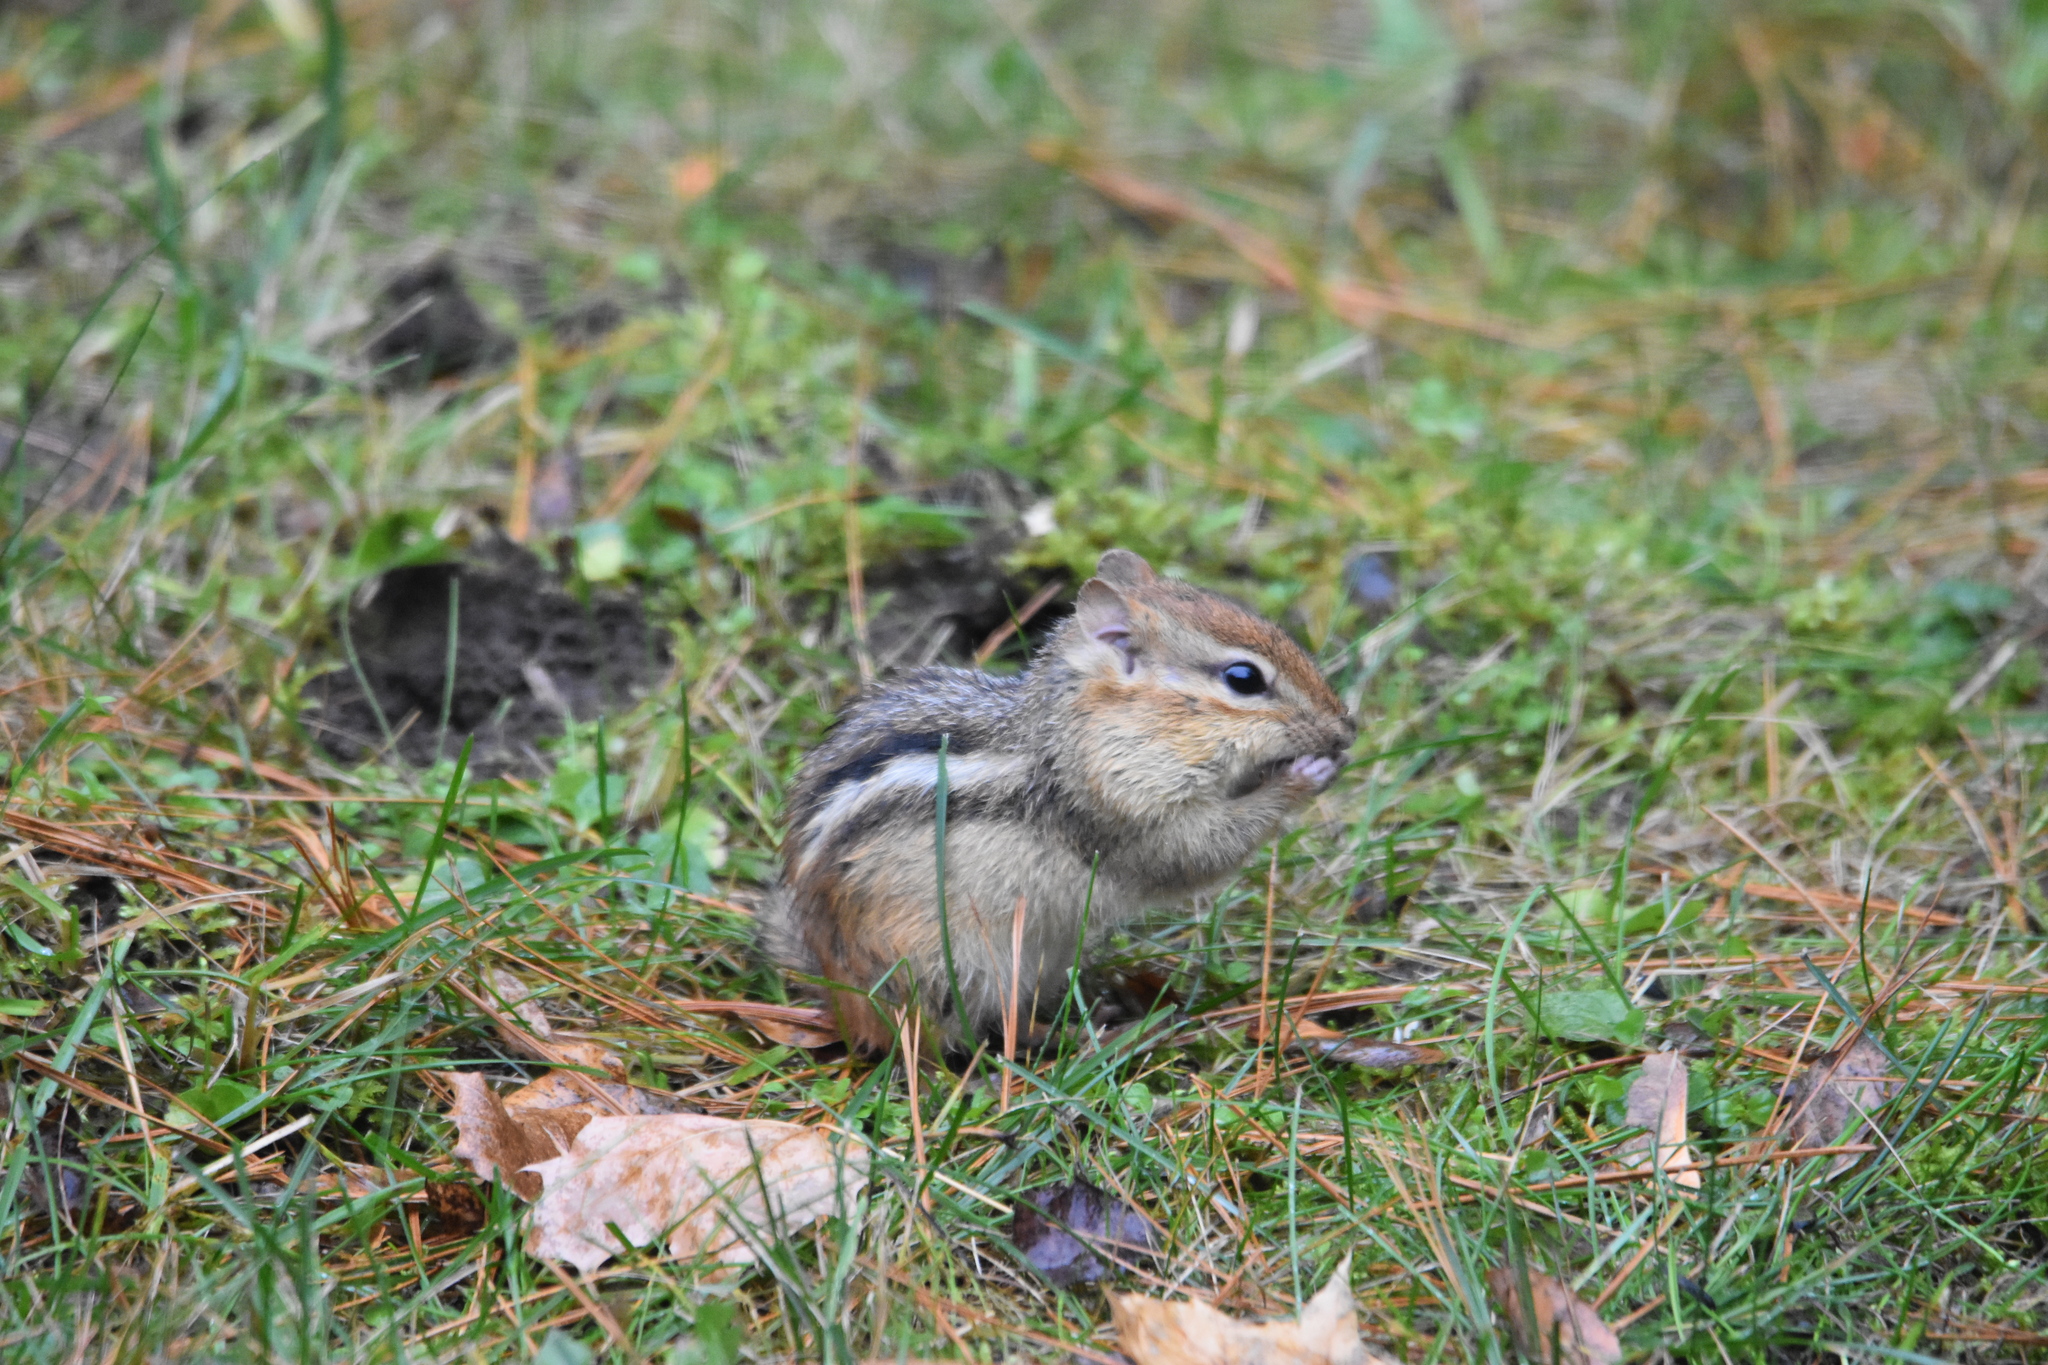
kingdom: Animalia
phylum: Chordata
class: Mammalia
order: Rodentia
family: Sciuridae
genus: Tamias
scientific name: Tamias striatus
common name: Eastern chipmunk
